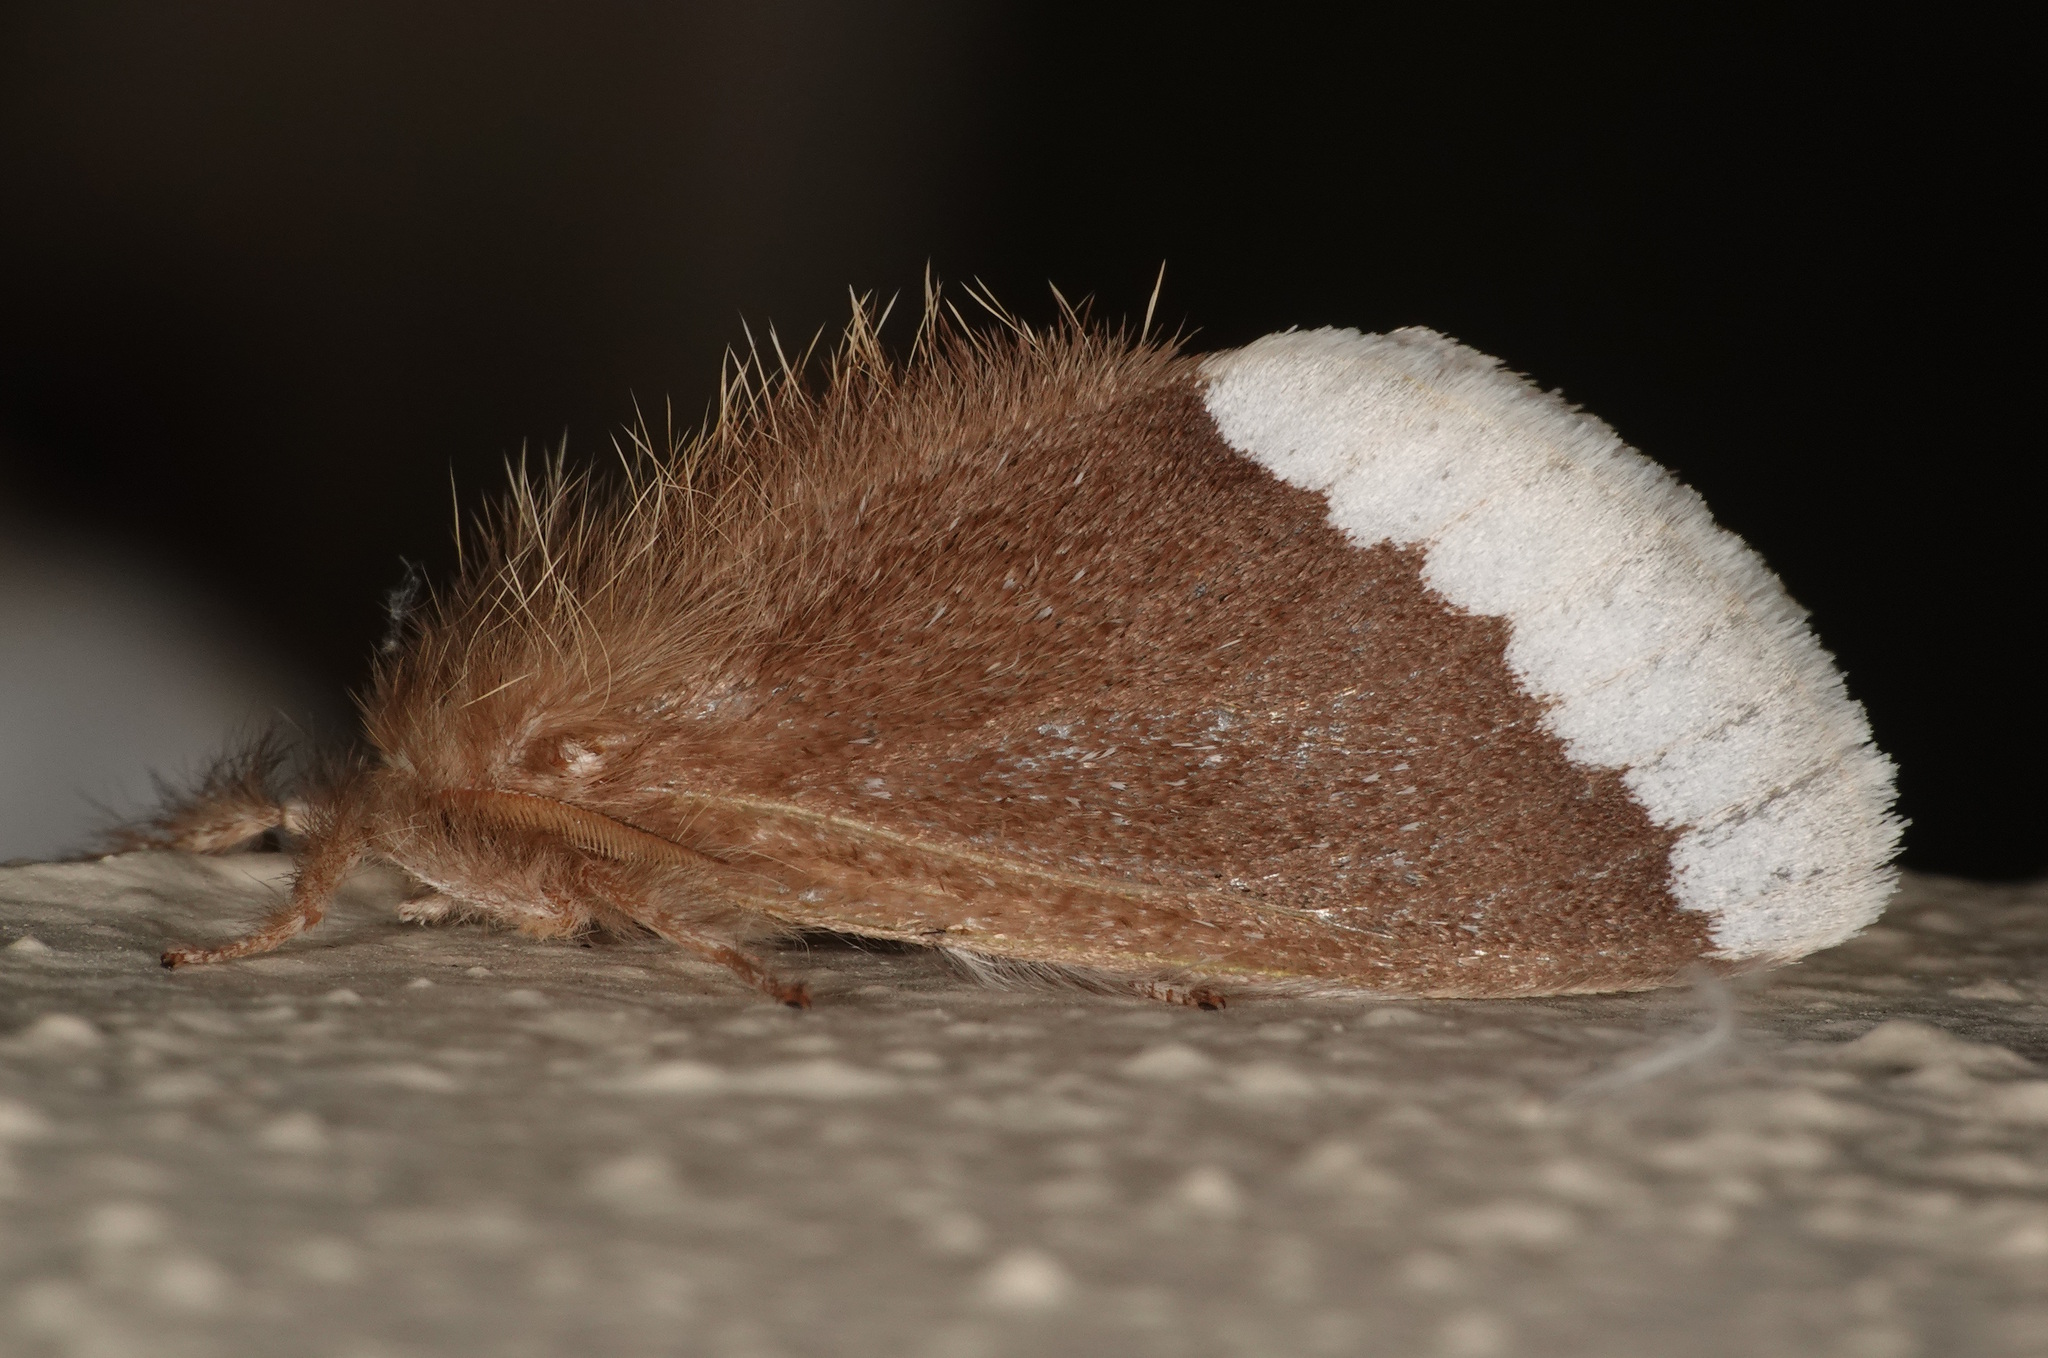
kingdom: Animalia
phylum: Arthropoda
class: Insecta
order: Lepidoptera
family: Erebidae
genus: Euproctis
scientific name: Euproctis
